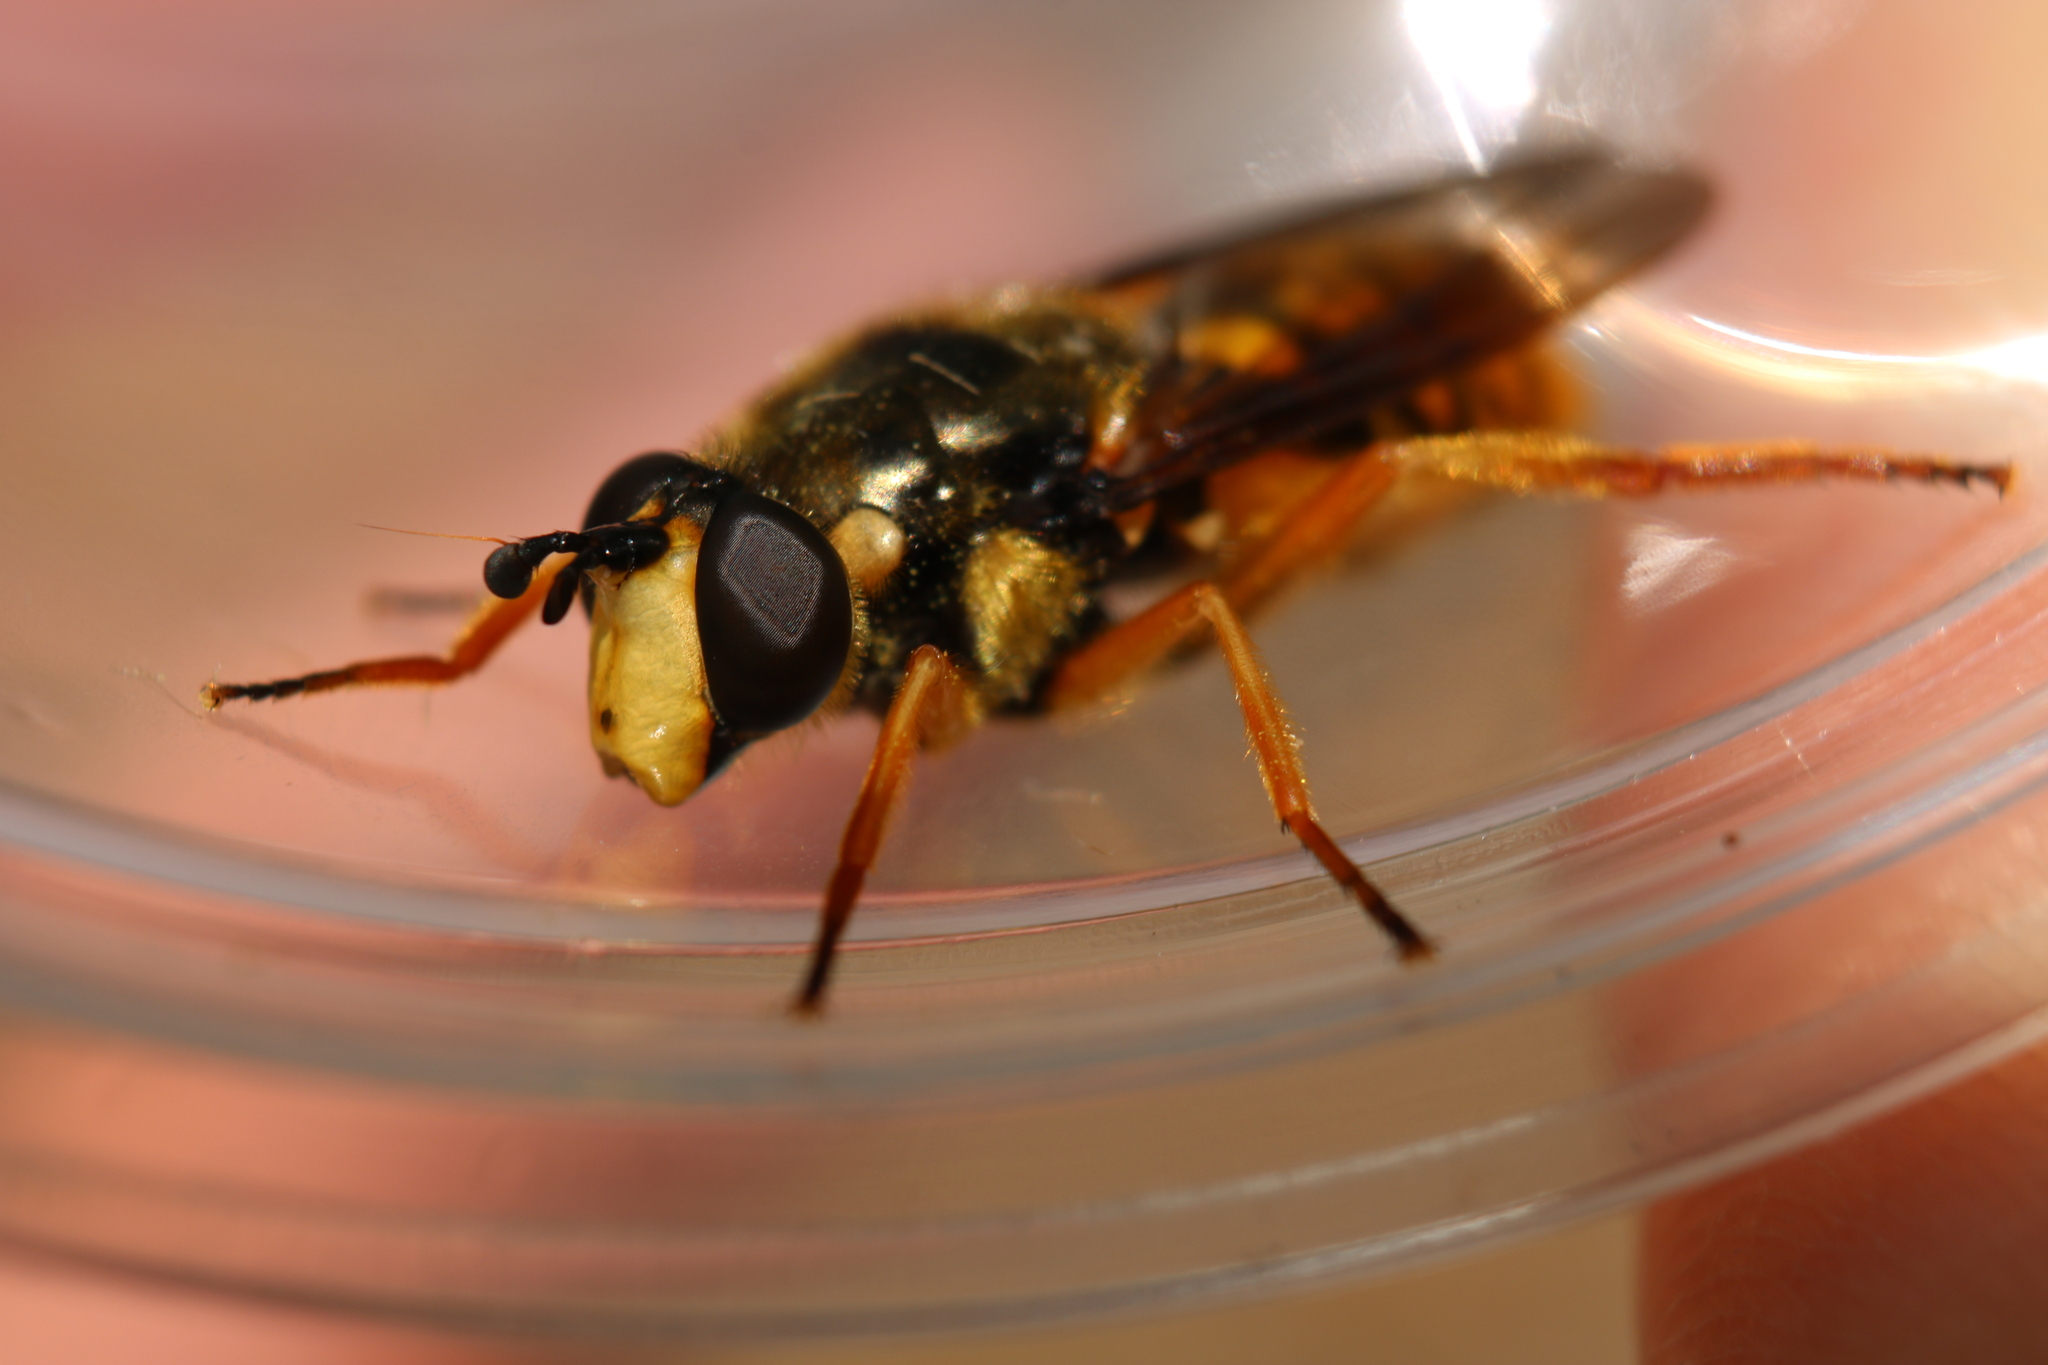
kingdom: Animalia
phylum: Arthropoda
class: Insecta
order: Diptera
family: Syrphidae
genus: Somula
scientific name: Somula decora
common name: Spotted wood fly
